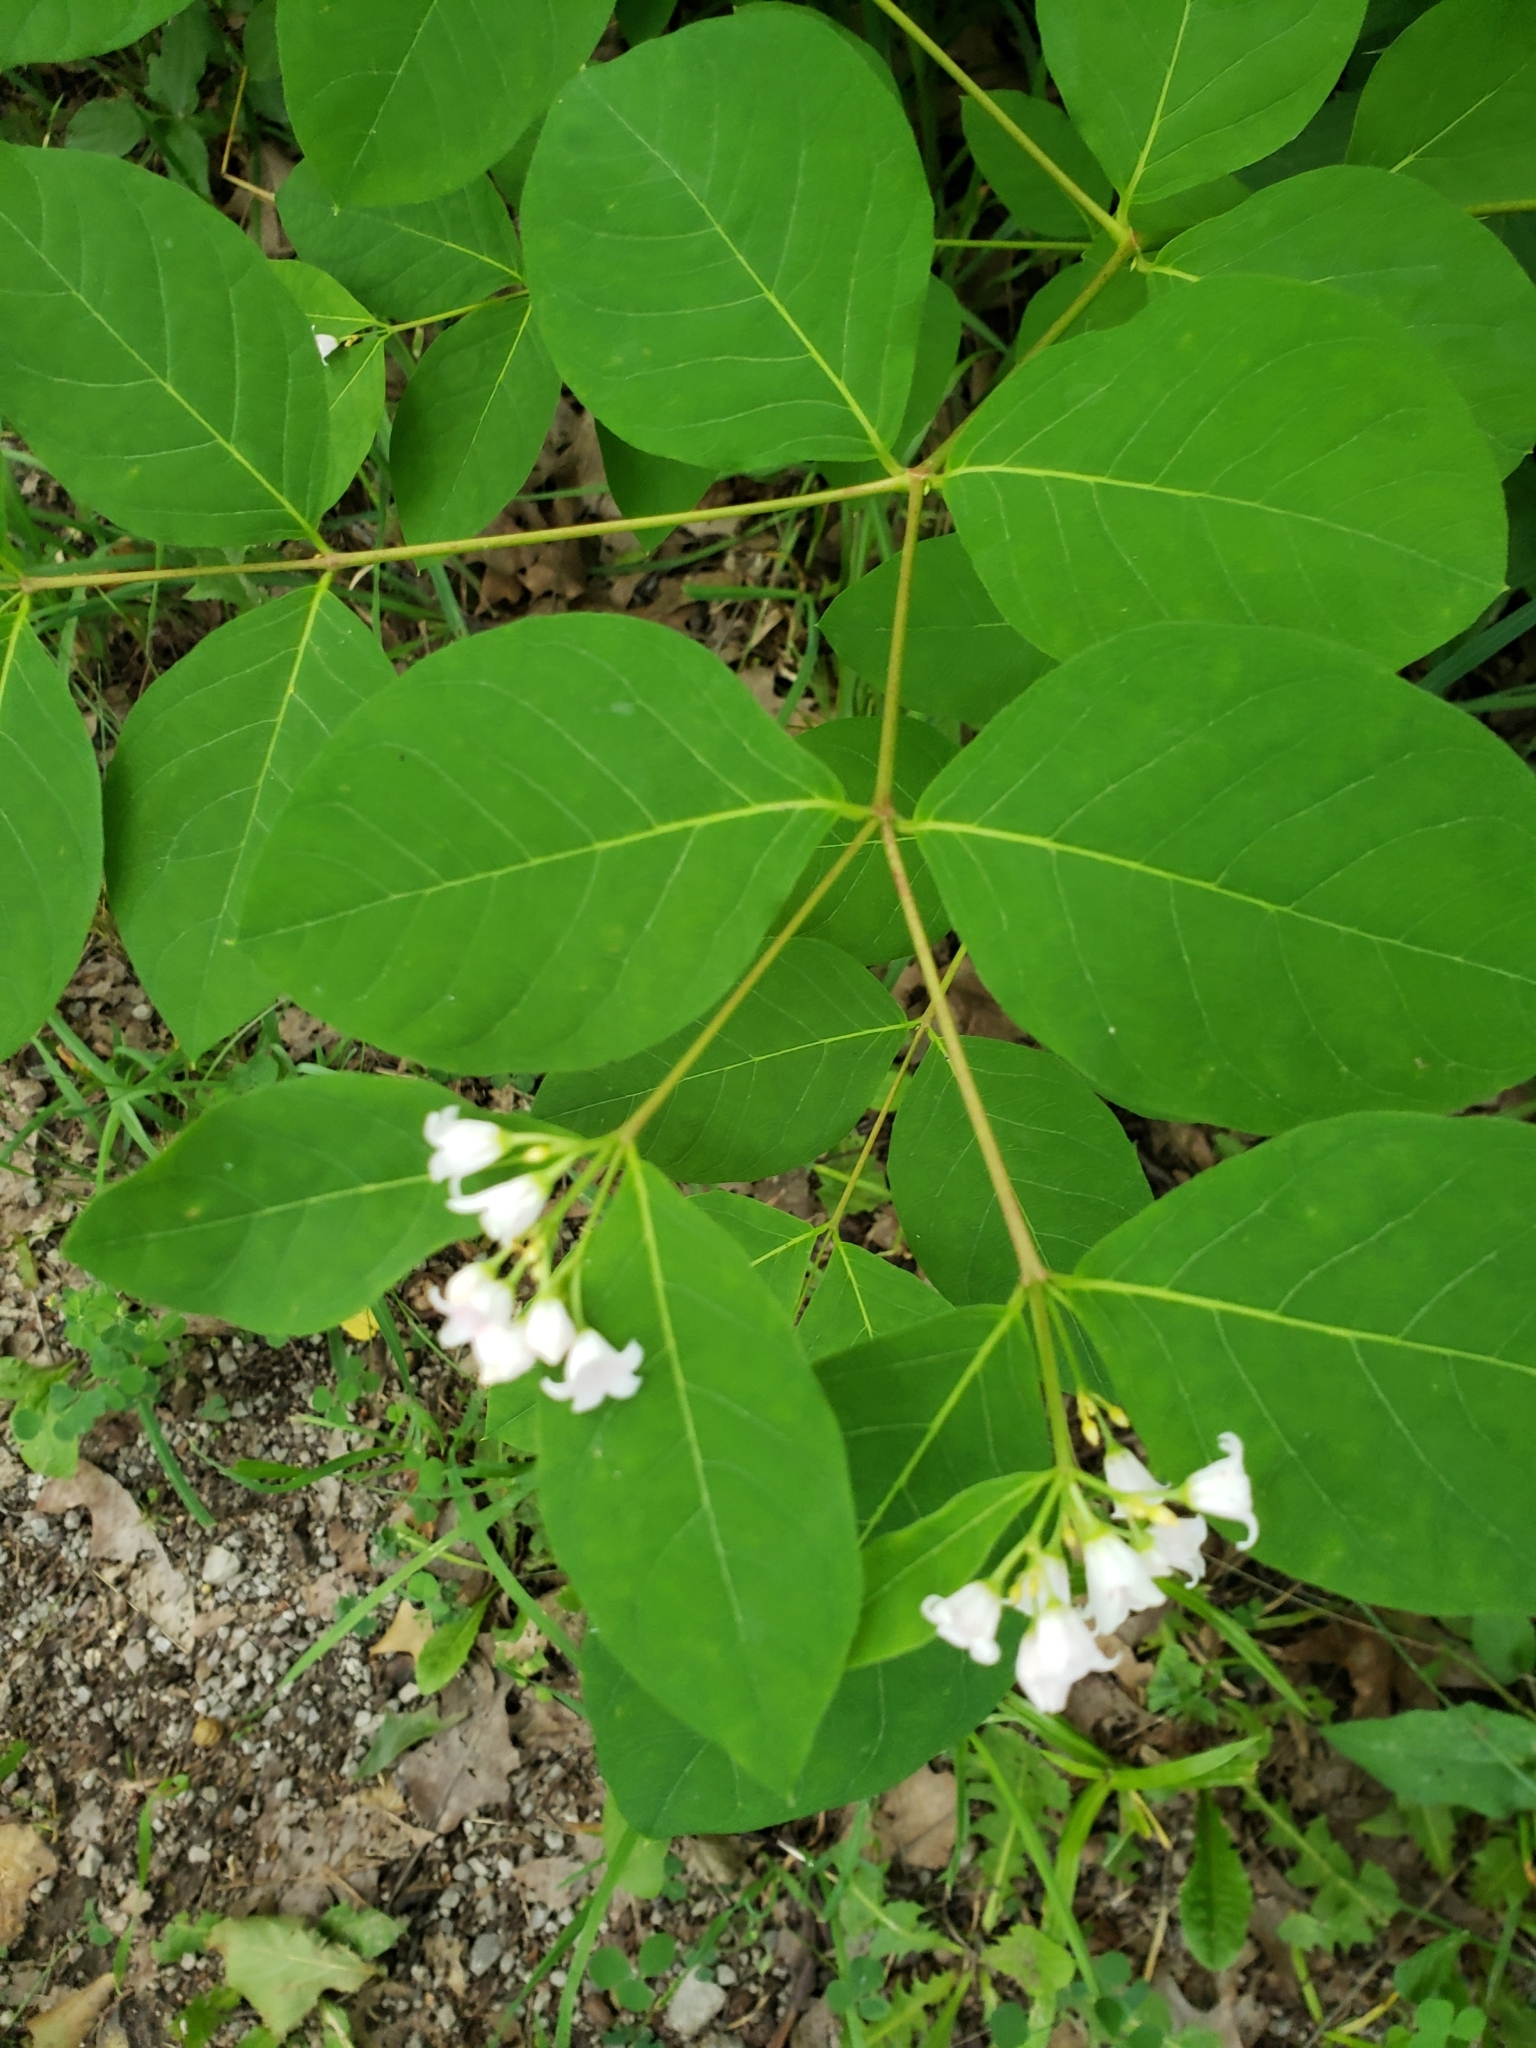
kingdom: Plantae
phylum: Tracheophyta
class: Magnoliopsida
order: Gentianales
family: Apocynaceae
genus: Apocynum
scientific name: Apocynum androsaemifolium
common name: Spreading dogbane
